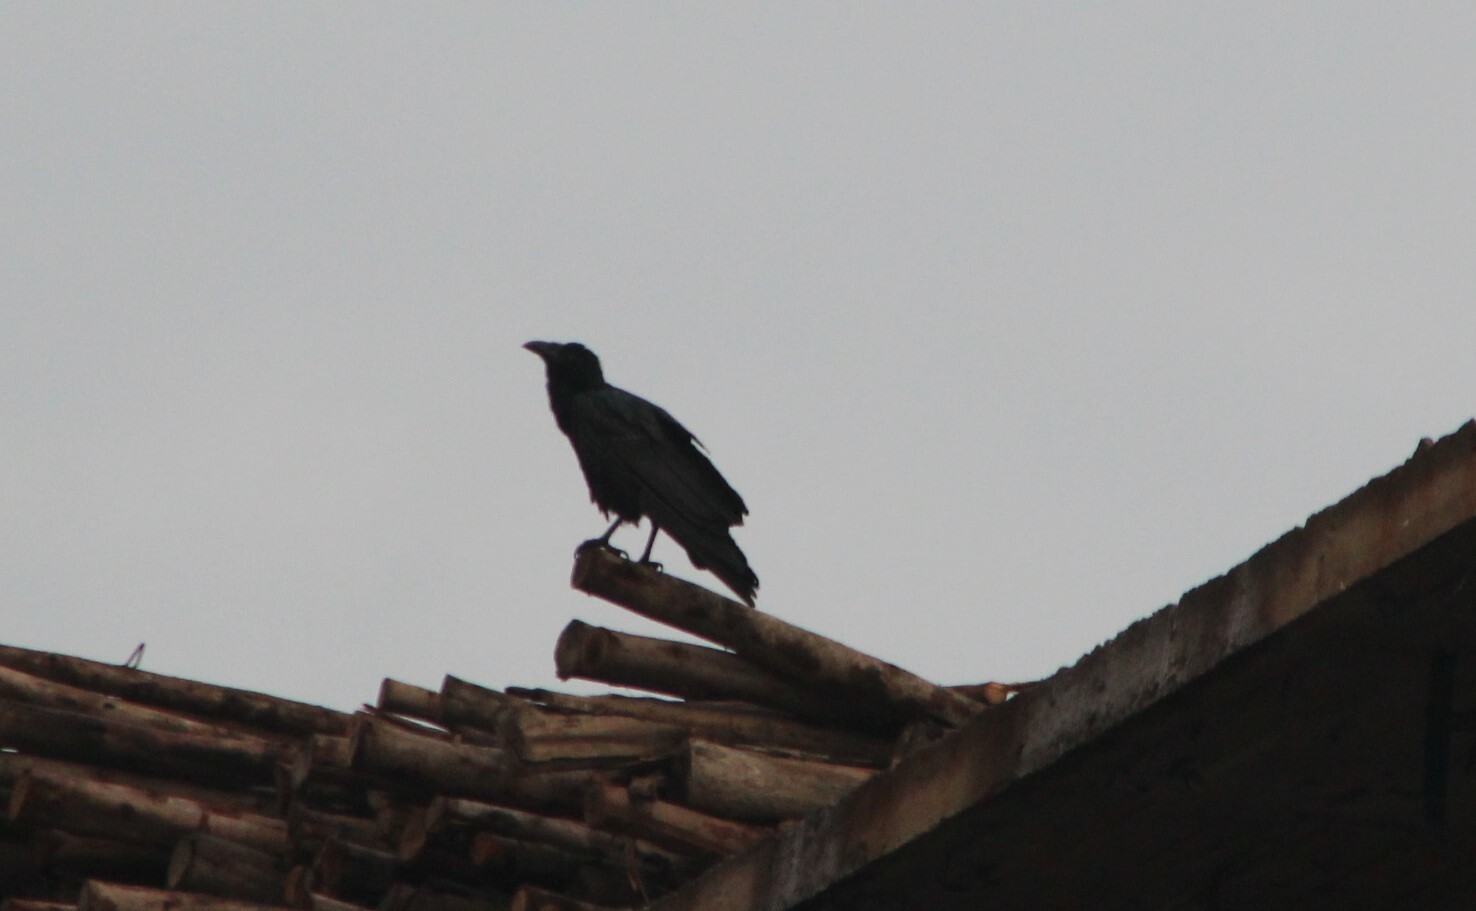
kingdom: Animalia
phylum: Chordata
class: Aves
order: Passeriformes
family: Corvidae
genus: Corvus
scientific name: Corvus rhipidurus
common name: Fan-tailed raven
